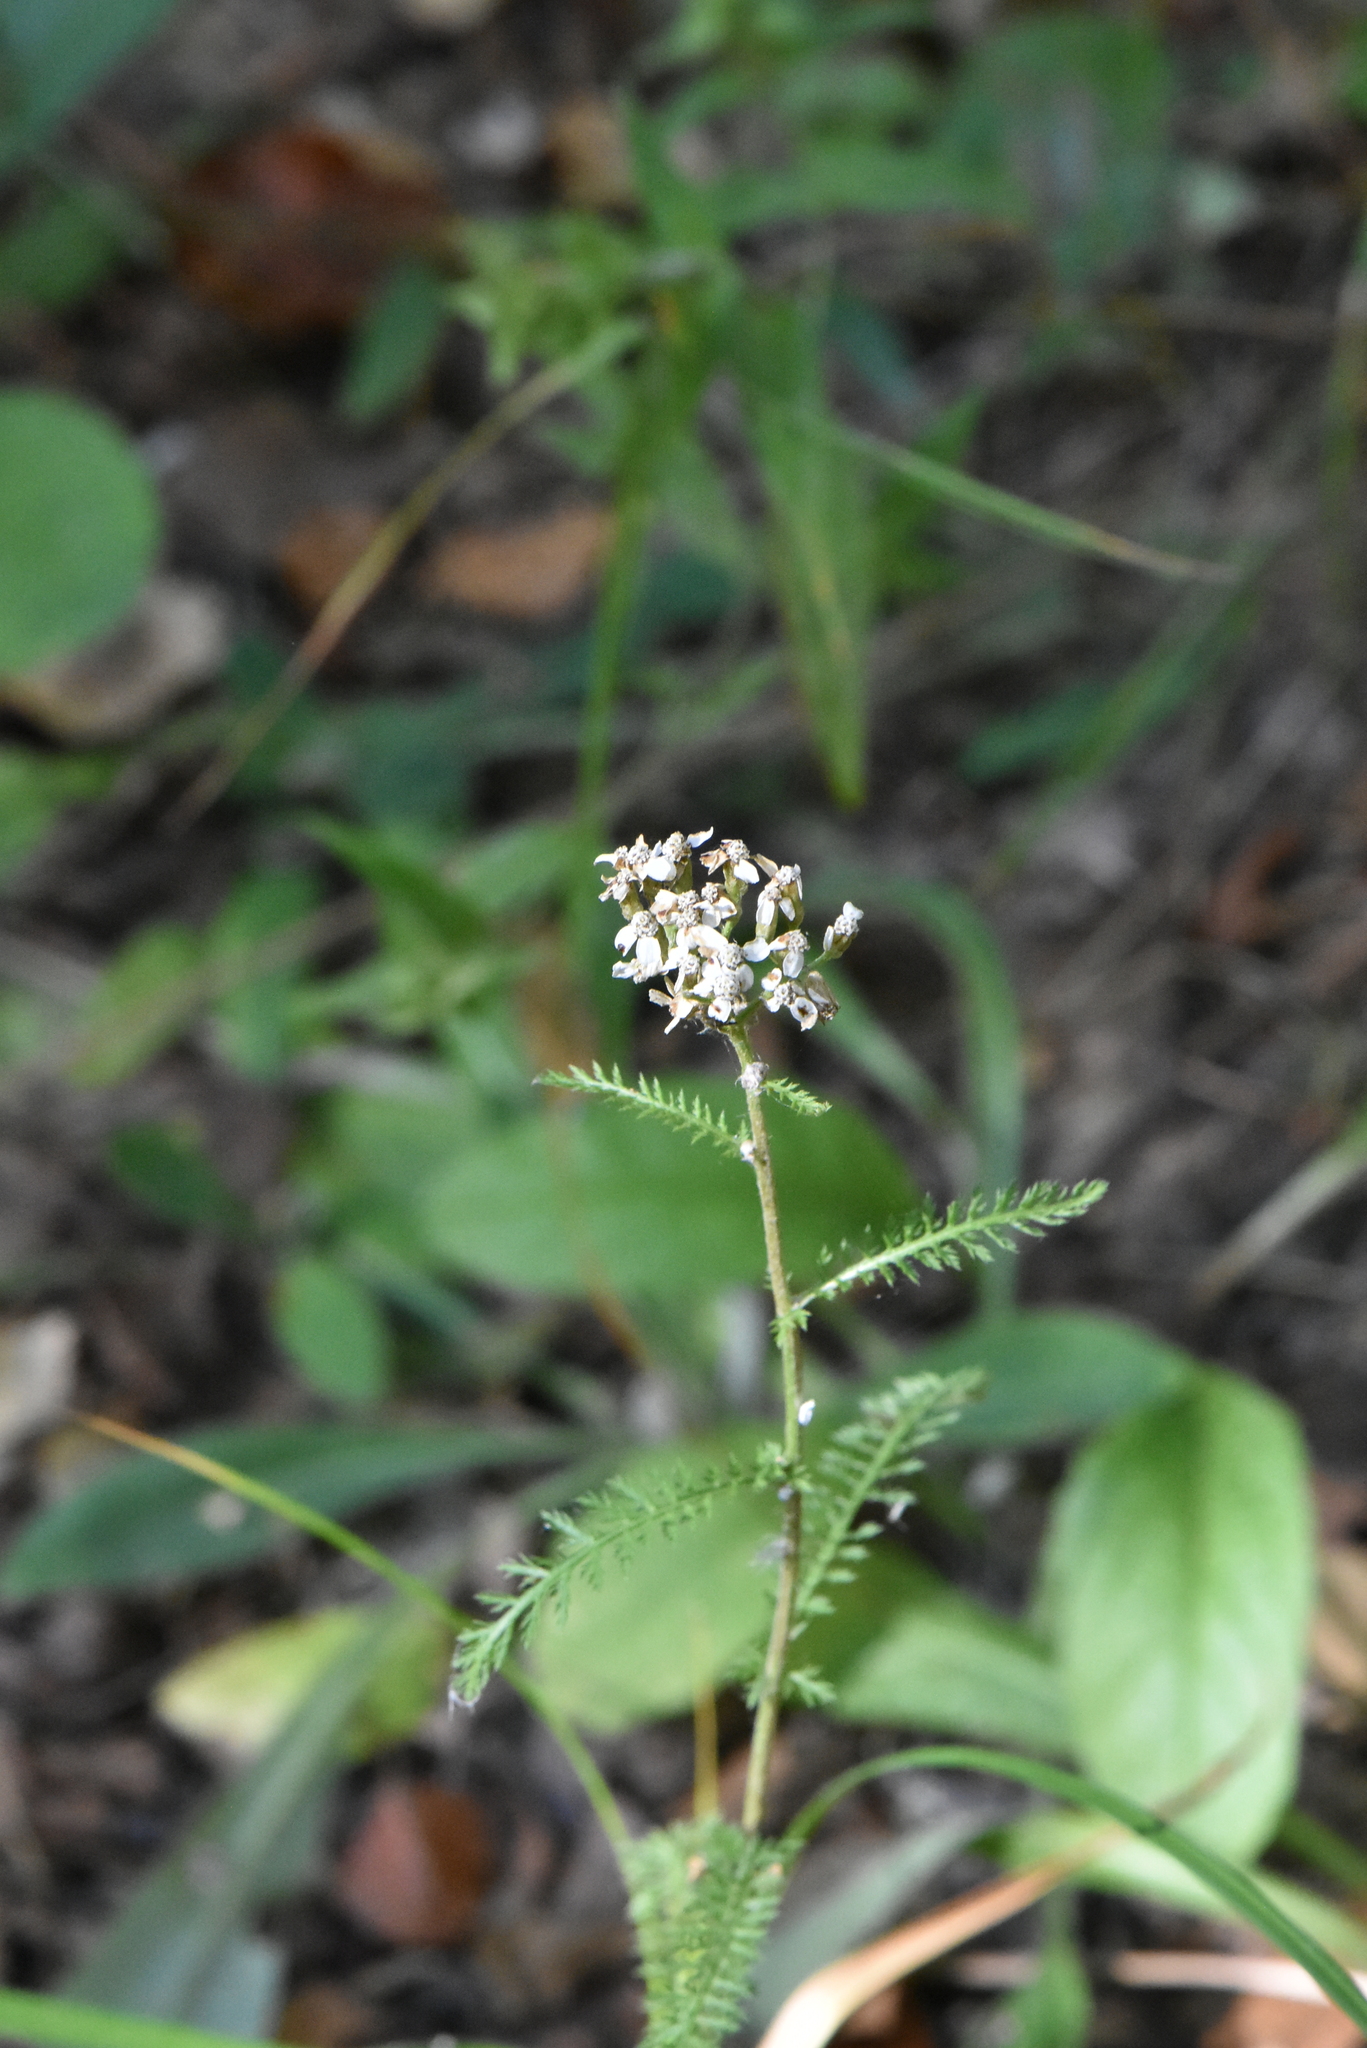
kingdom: Plantae
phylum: Tracheophyta
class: Magnoliopsida
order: Asterales
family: Asteraceae
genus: Achillea
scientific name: Achillea millefolium
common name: Yarrow
